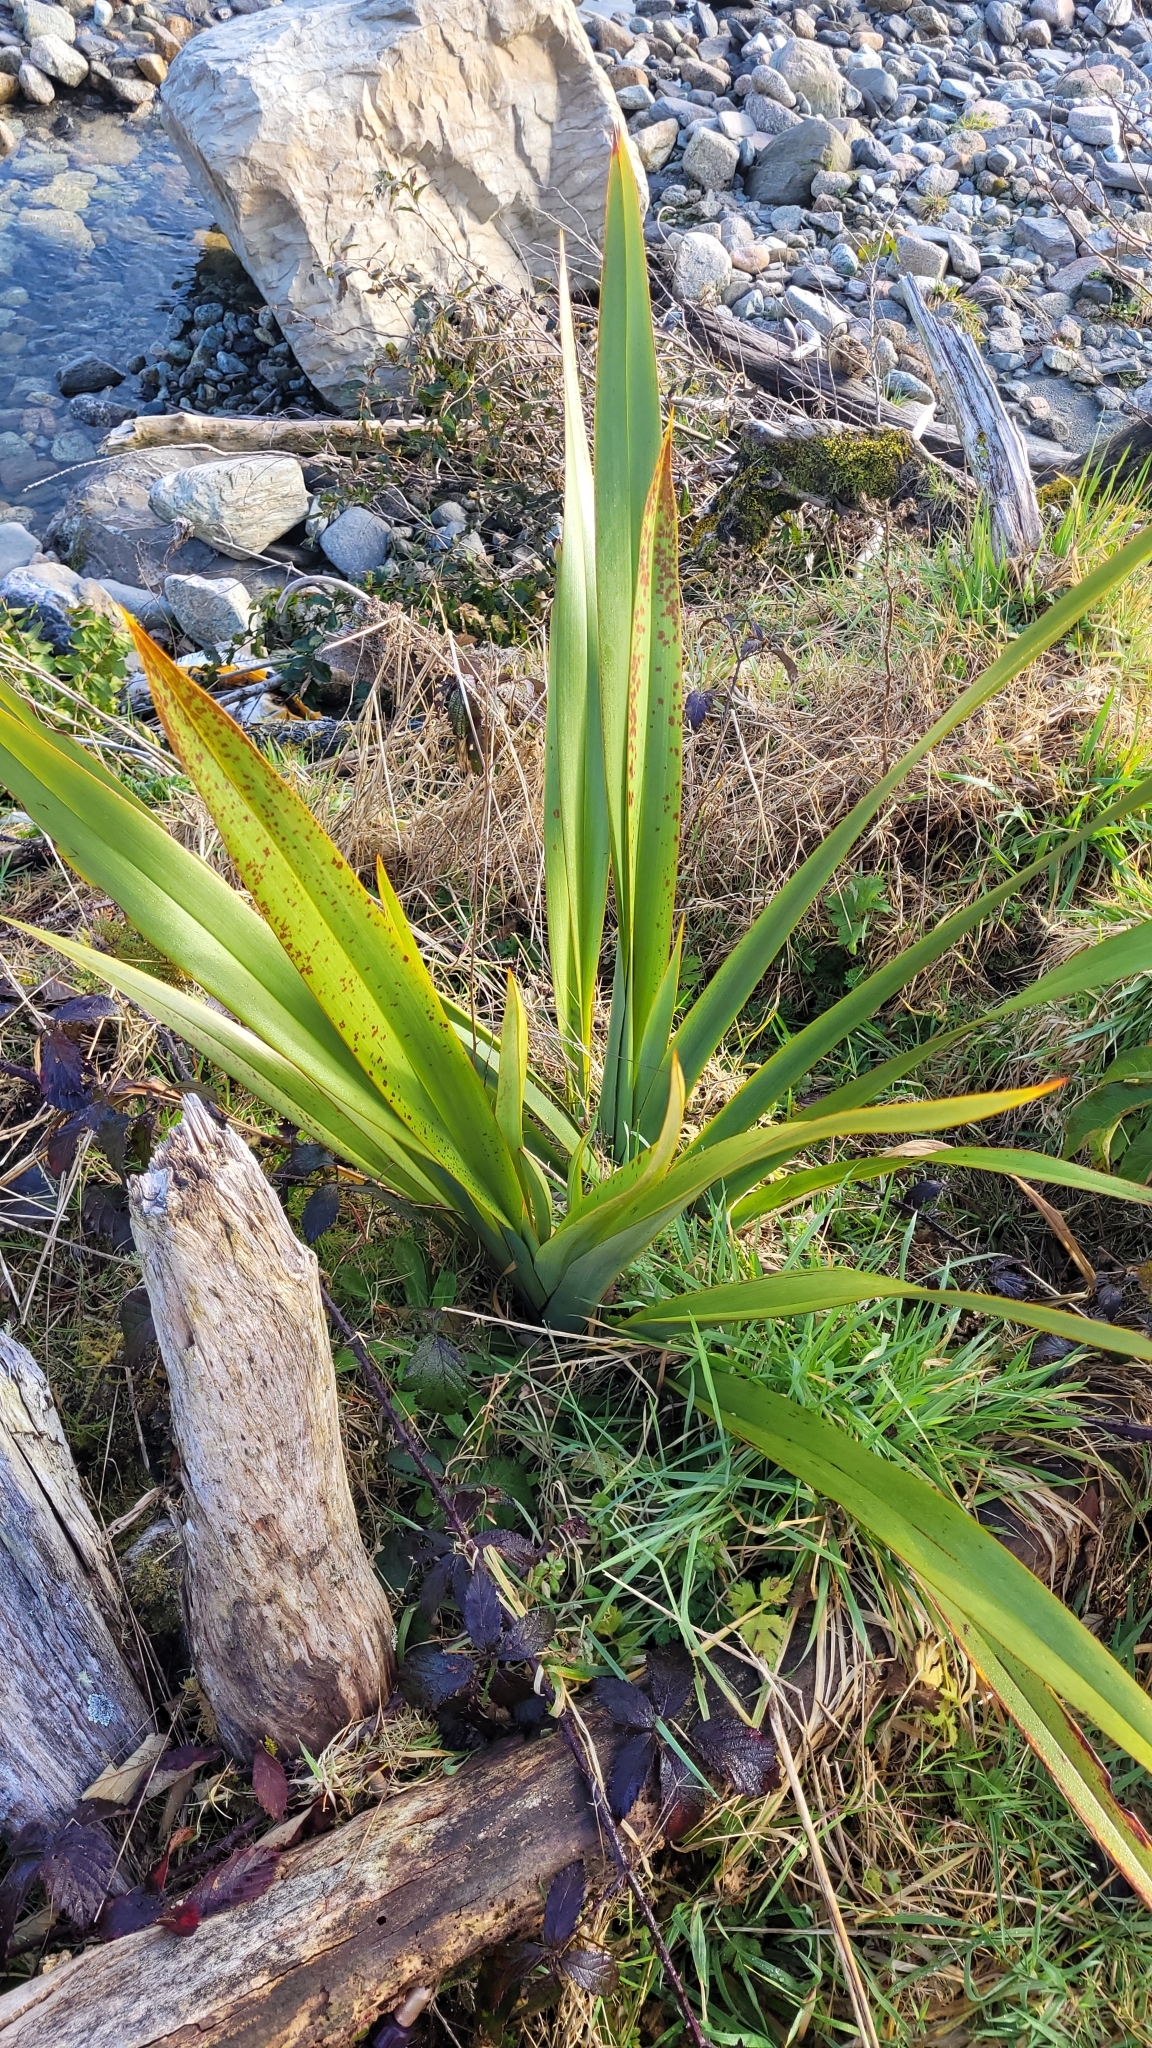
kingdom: Plantae
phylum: Tracheophyta
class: Liliopsida
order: Asparagales
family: Asphodelaceae
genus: Phormium
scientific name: Phormium colensoi
